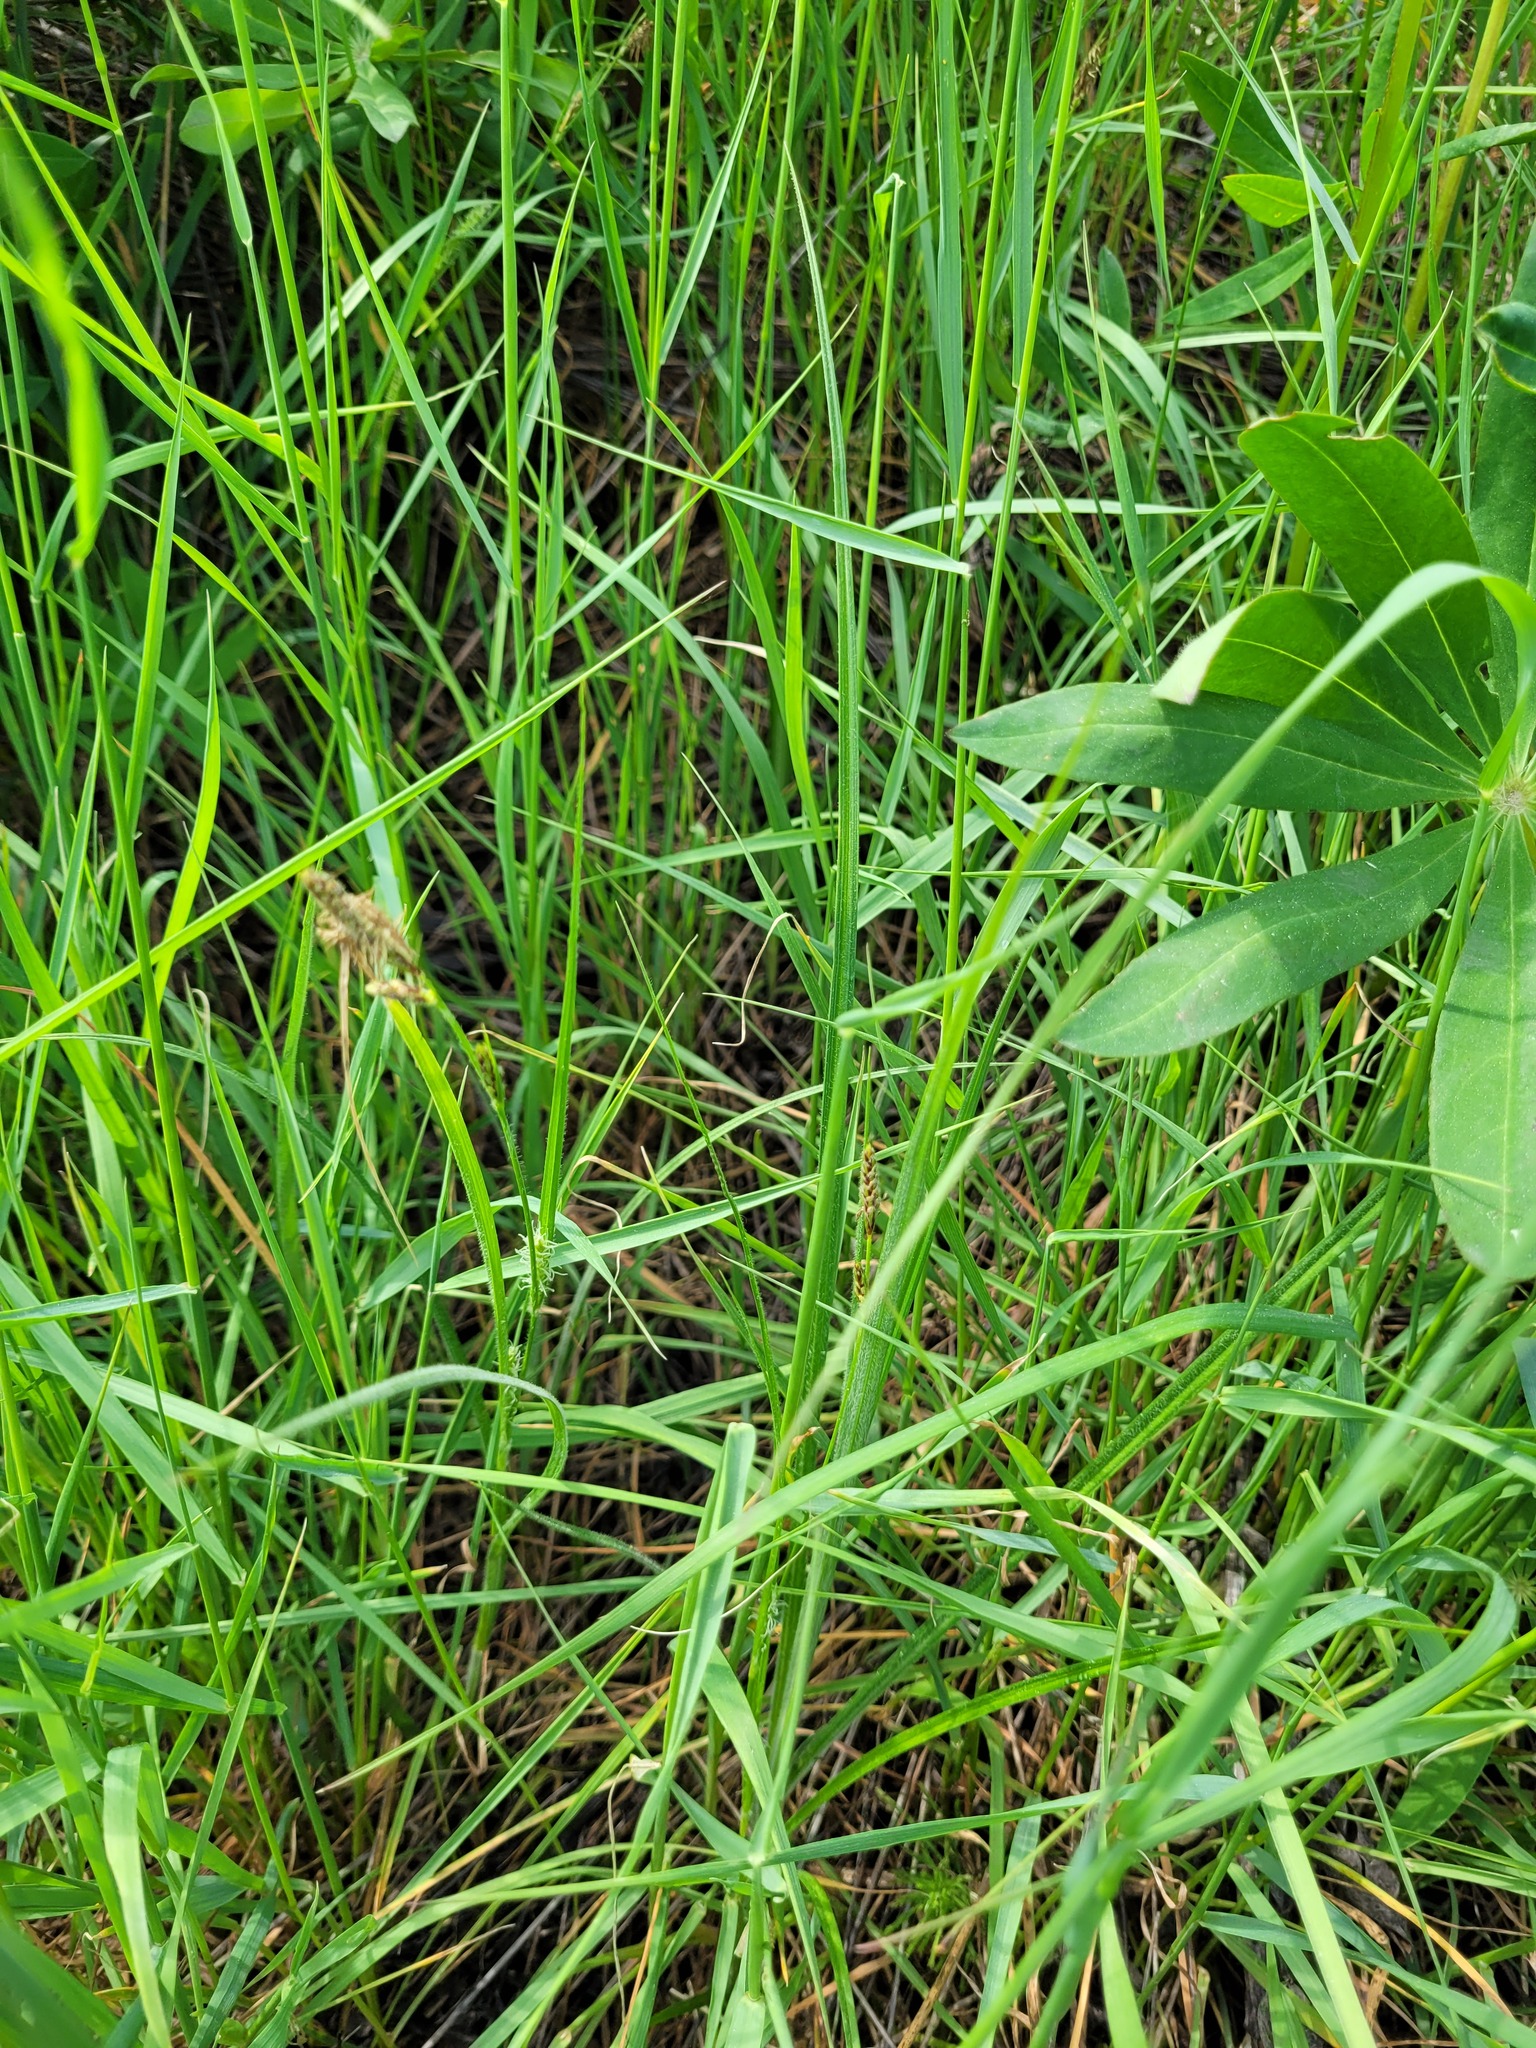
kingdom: Plantae
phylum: Tracheophyta
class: Liliopsida
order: Poales
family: Cyperaceae
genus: Carex
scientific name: Carex hirta
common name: Hairy sedge
